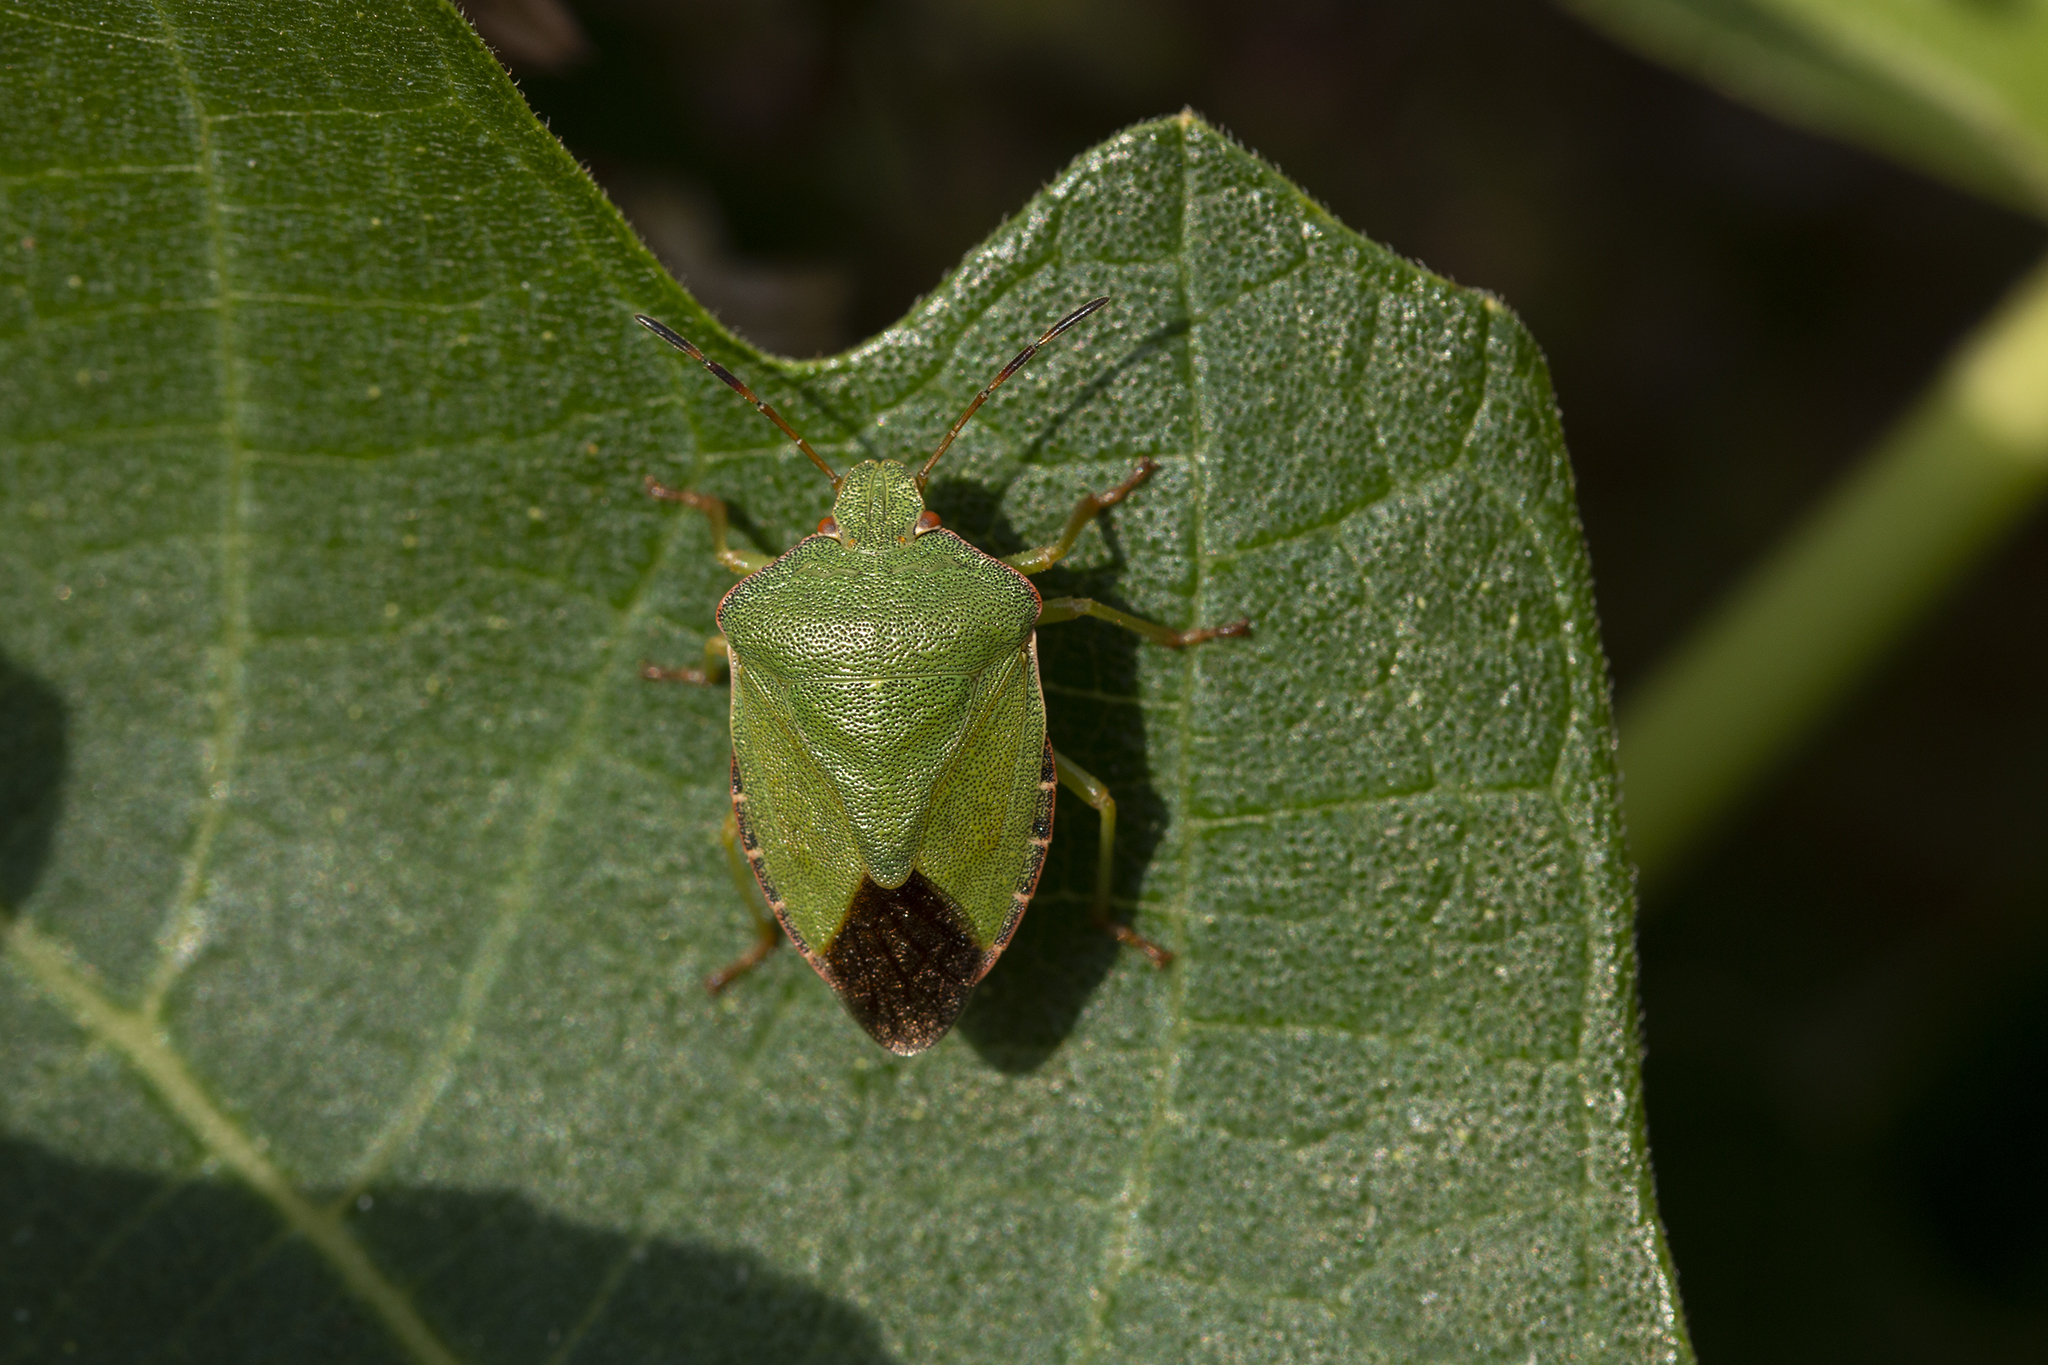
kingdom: Animalia
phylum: Arthropoda
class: Insecta
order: Hemiptera
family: Pentatomidae
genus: Palomena
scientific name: Palomena prasina
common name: Green shieldbug
